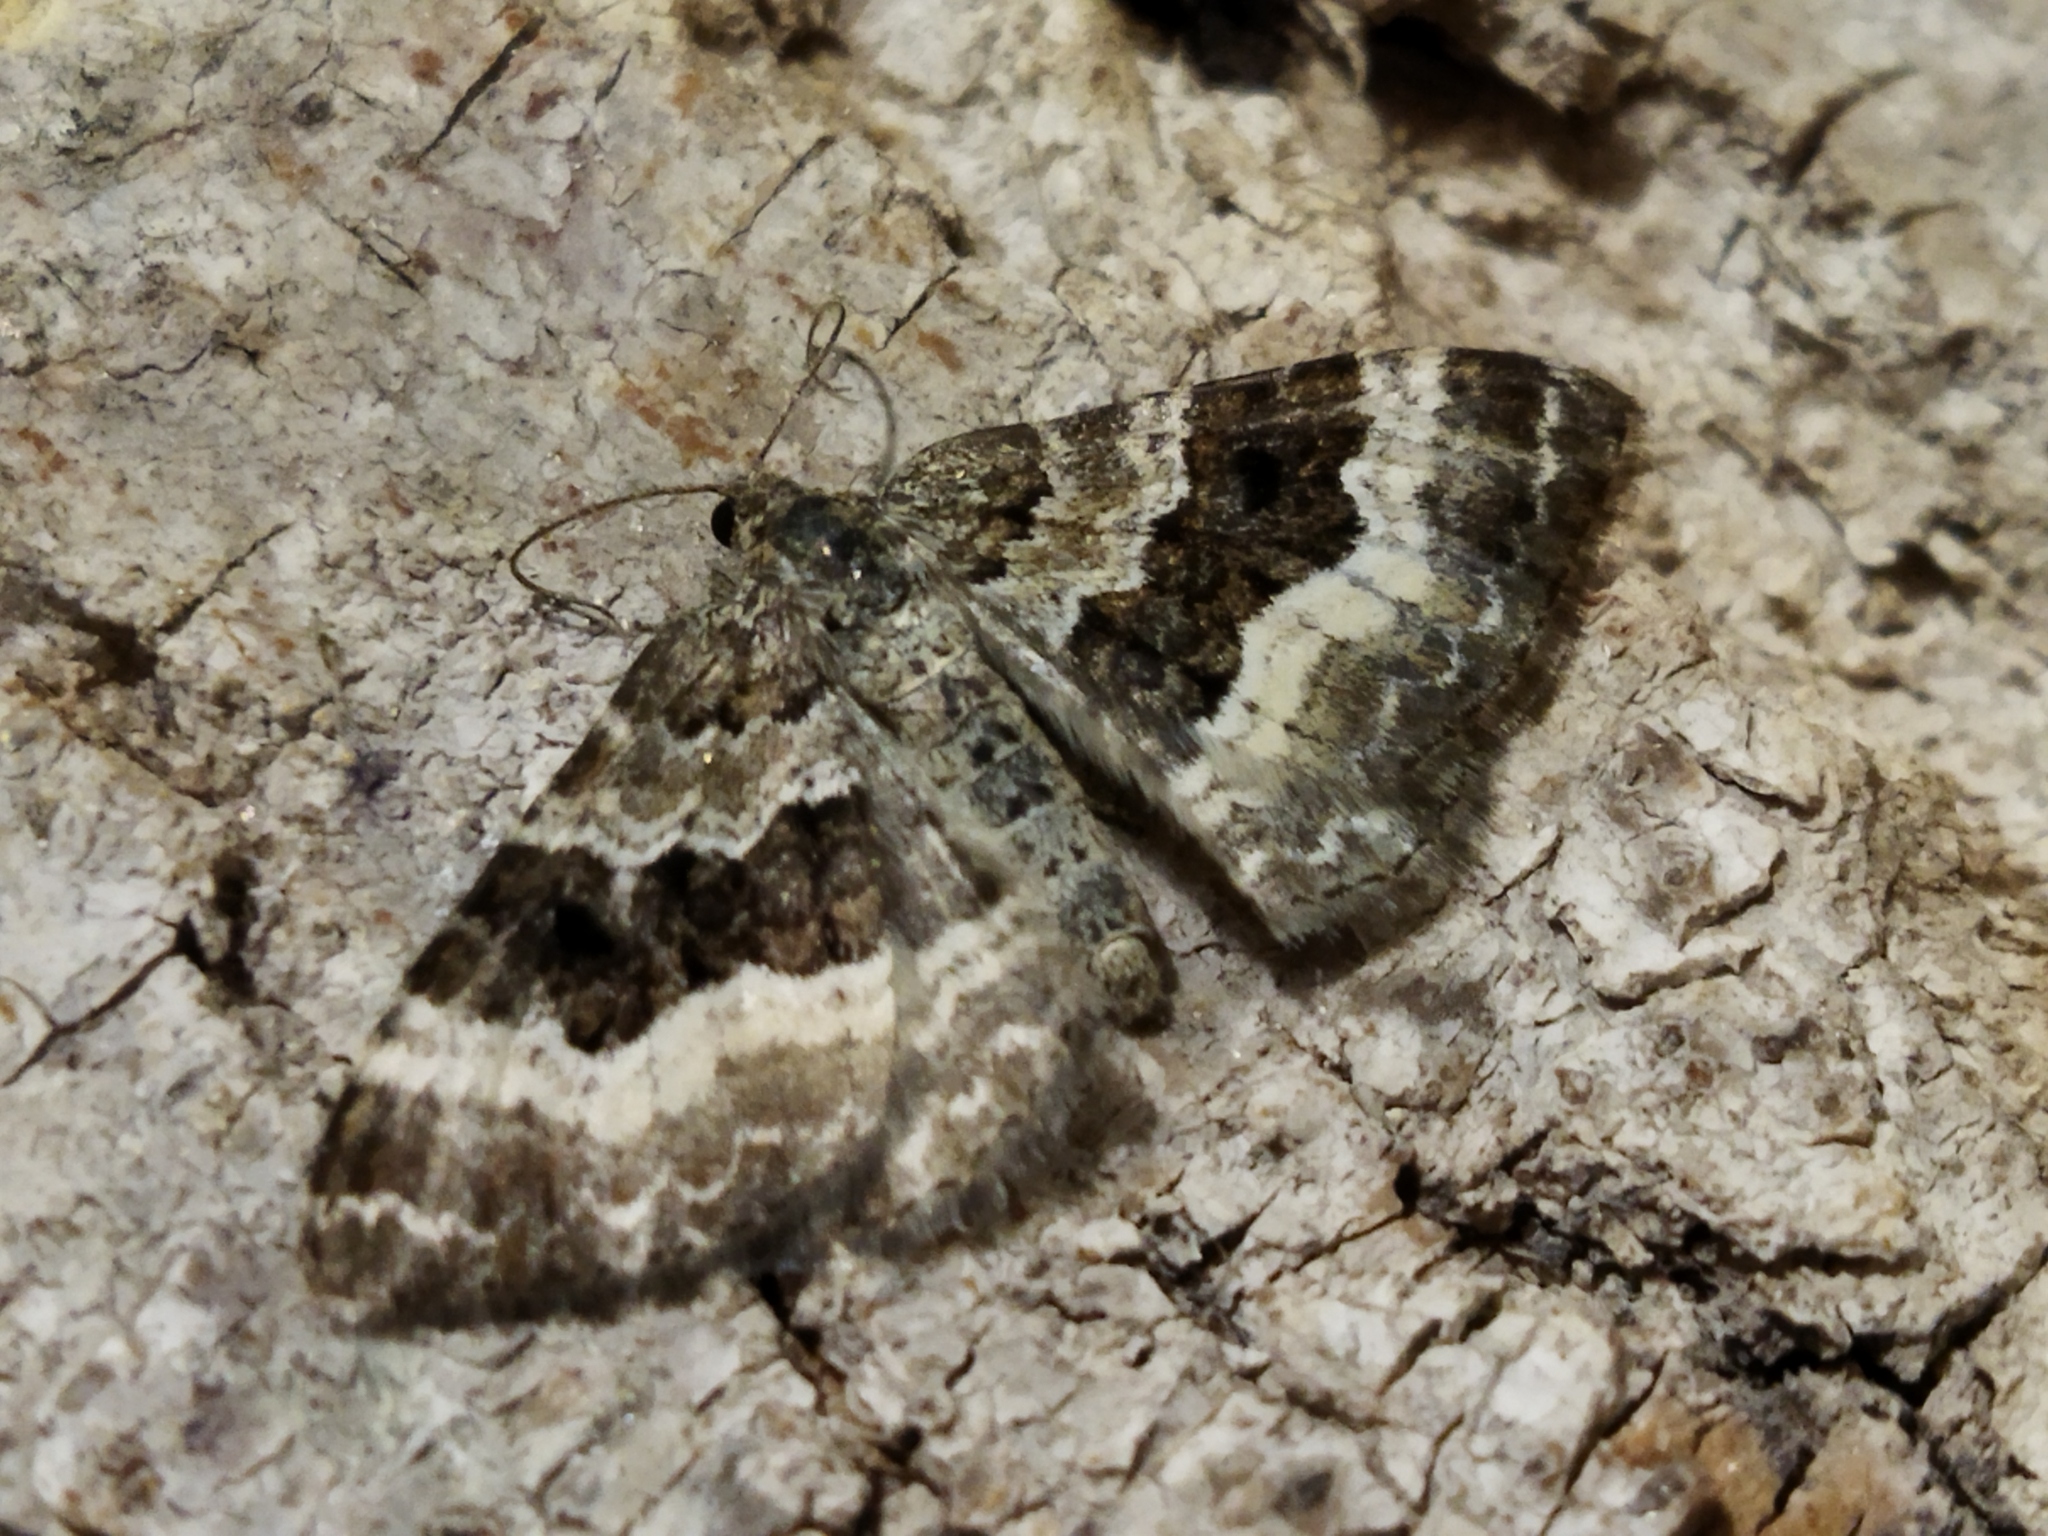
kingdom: Animalia
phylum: Arthropoda
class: Insecta
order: Lepidoptera
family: Geometridae
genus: Epirrhoe
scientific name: Epirrhoe alternata
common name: Common carpet
